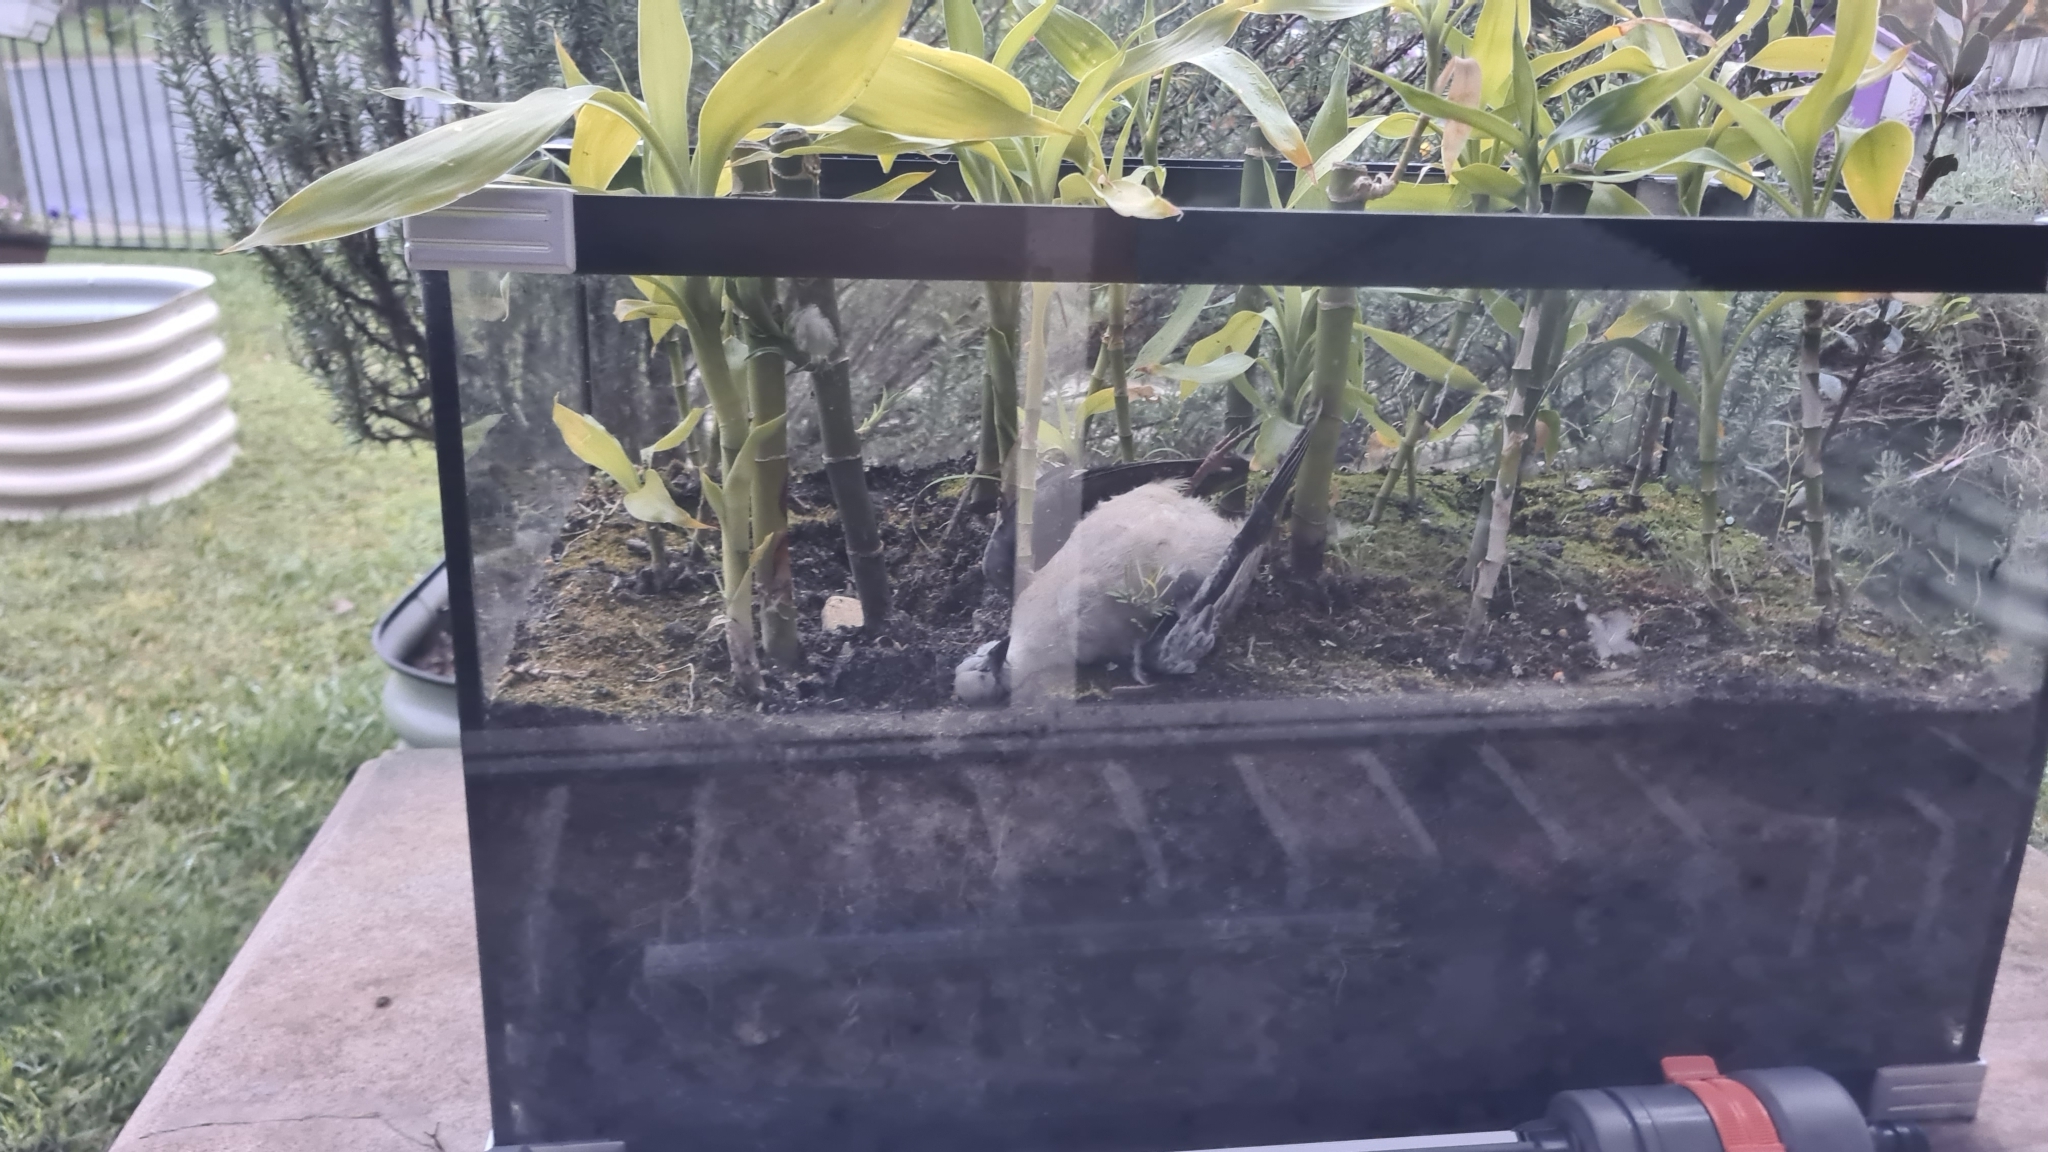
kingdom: Animalia
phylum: Chordata
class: Aves
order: Columbiformes
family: Columbidae
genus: Spilopelia
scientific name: Spilopelia chinensis
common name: Spotted dove
